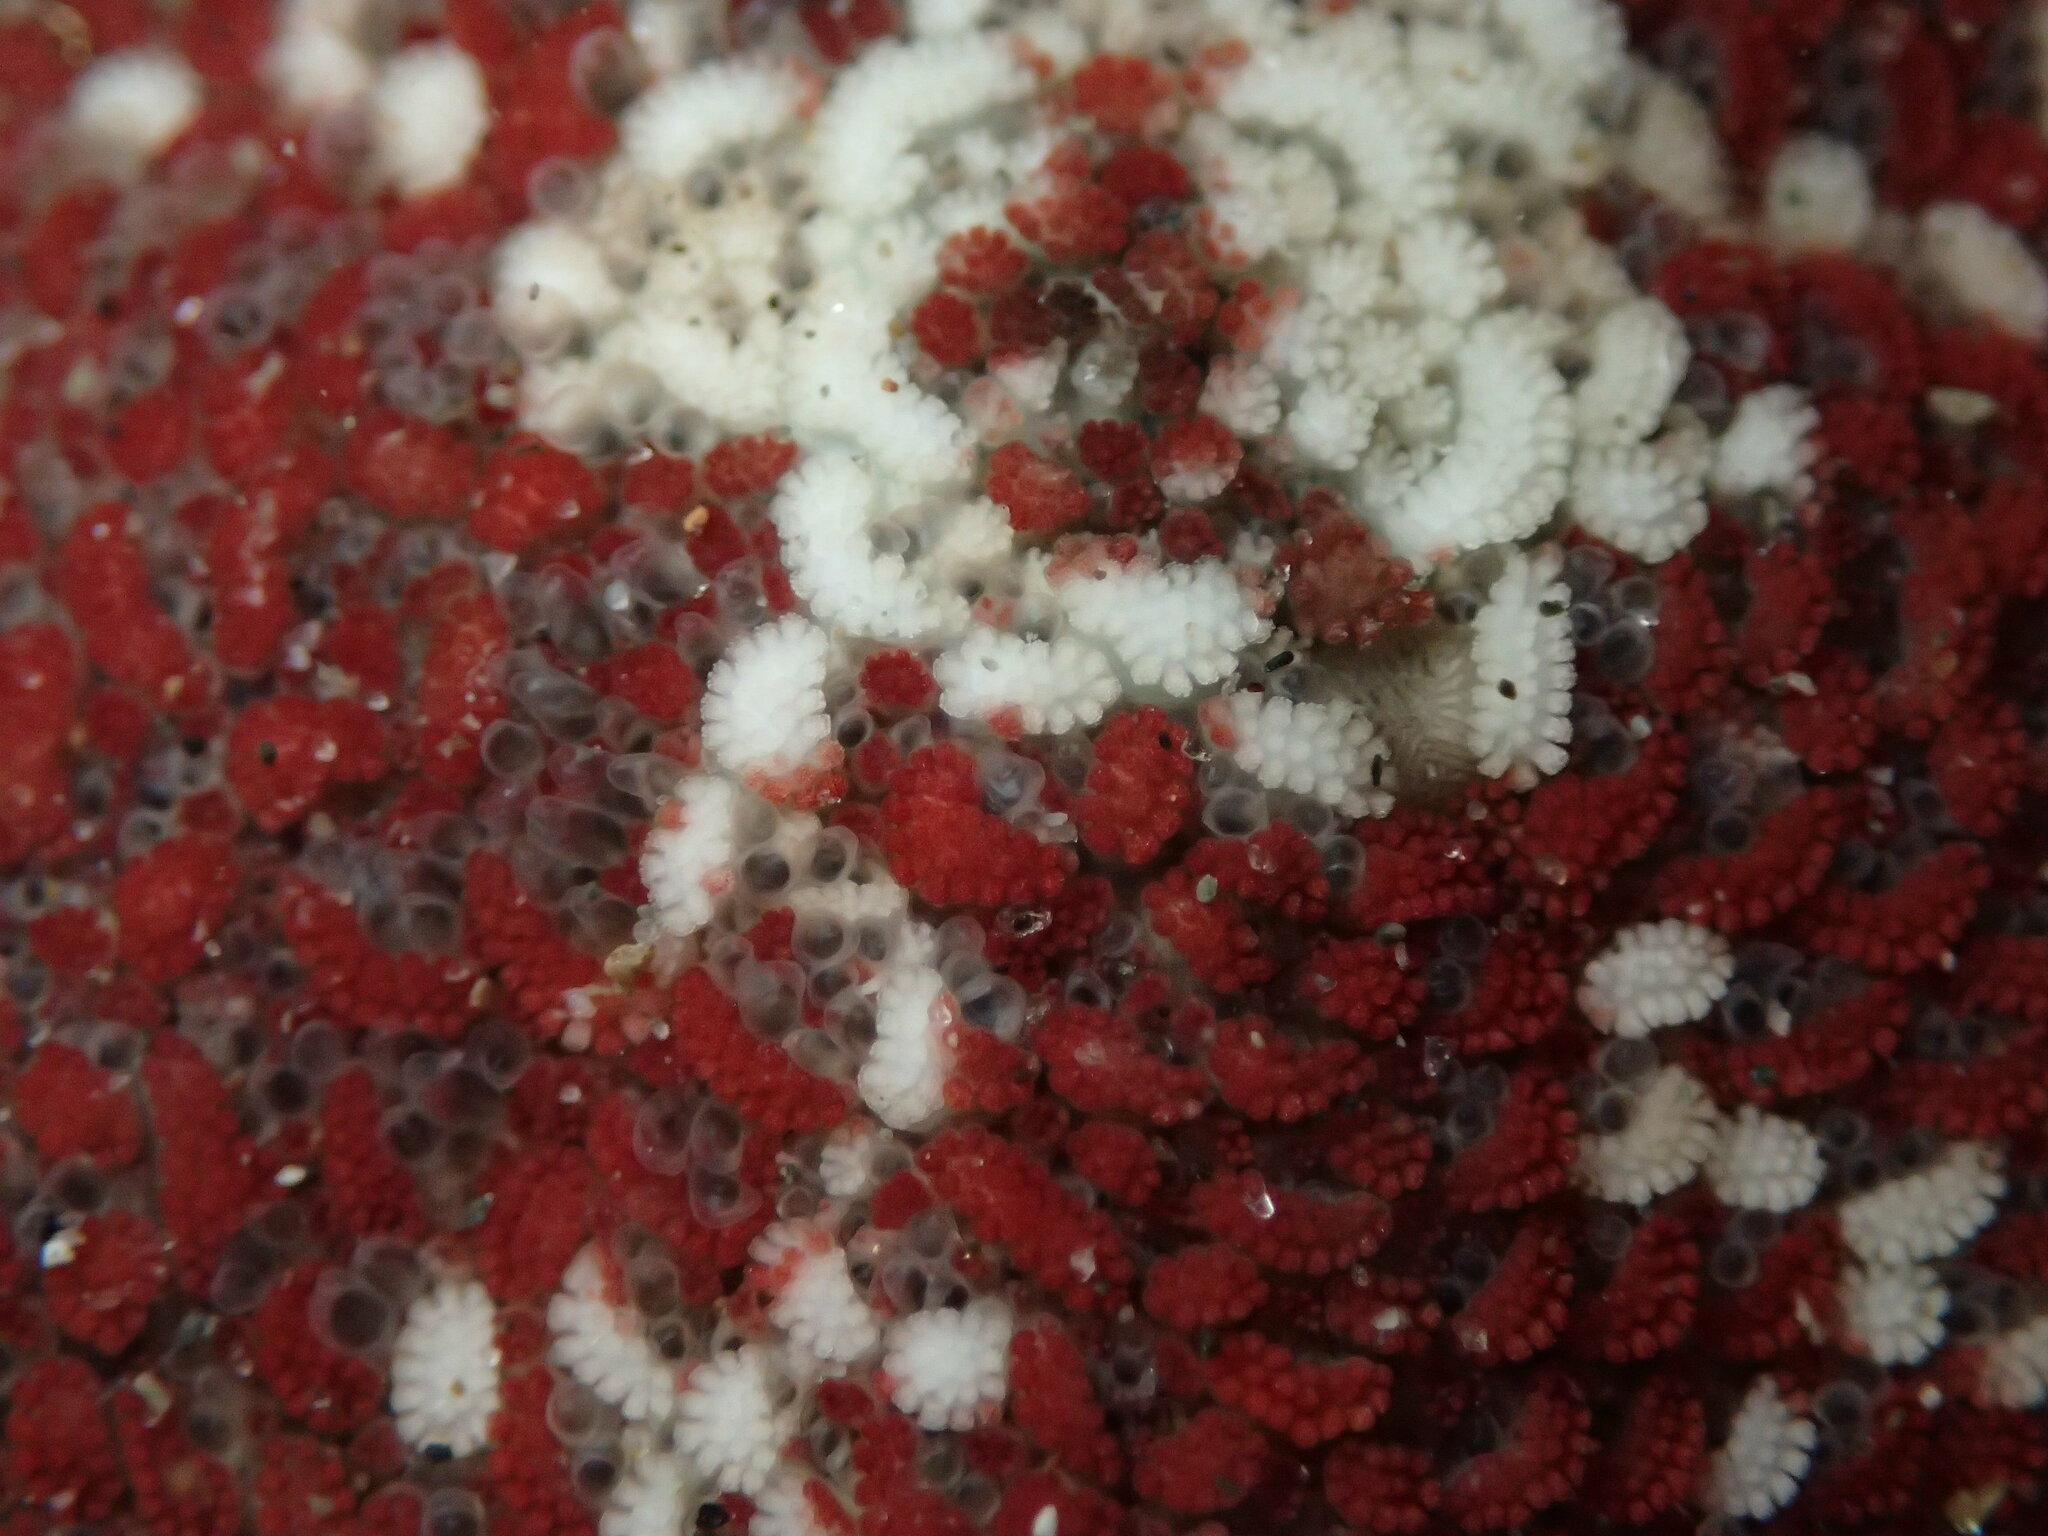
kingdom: Animalia
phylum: Echinodermata
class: Asteroidea
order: Valvatida
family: Asterinidae
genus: Patiria
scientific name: Patiria miniata
